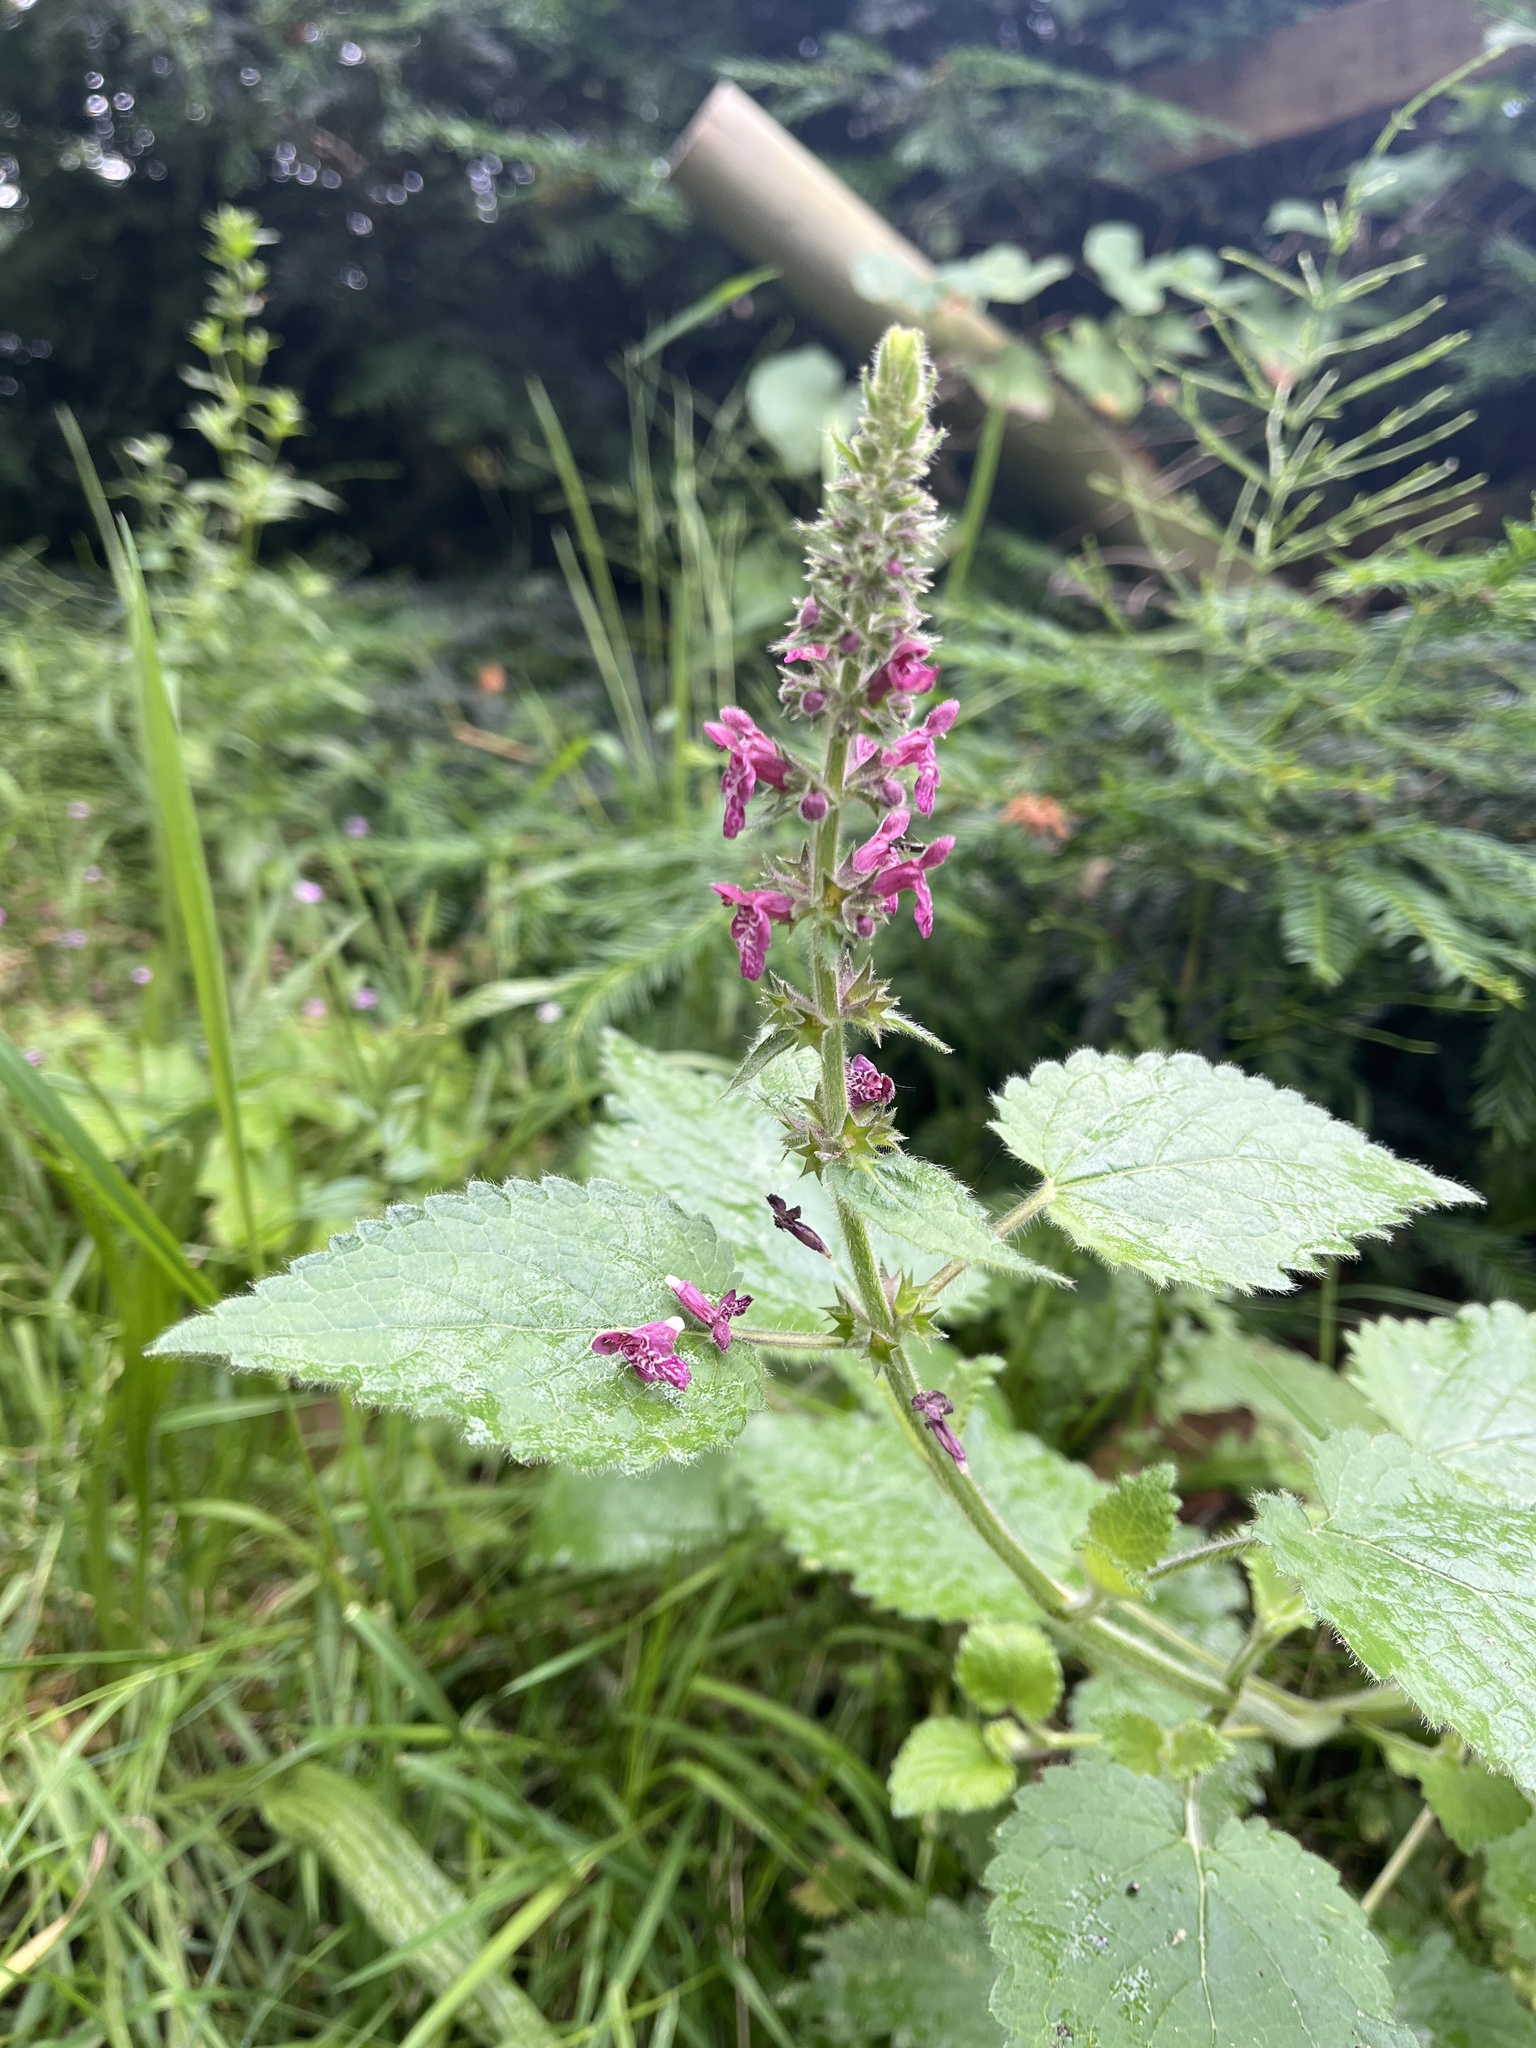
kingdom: Plantae
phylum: Tracheophyta
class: Magnoliopsida
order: Lamiales
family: Lamiaceae
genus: Stachys
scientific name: Stachys sylvatica
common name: Hedge woundwort
